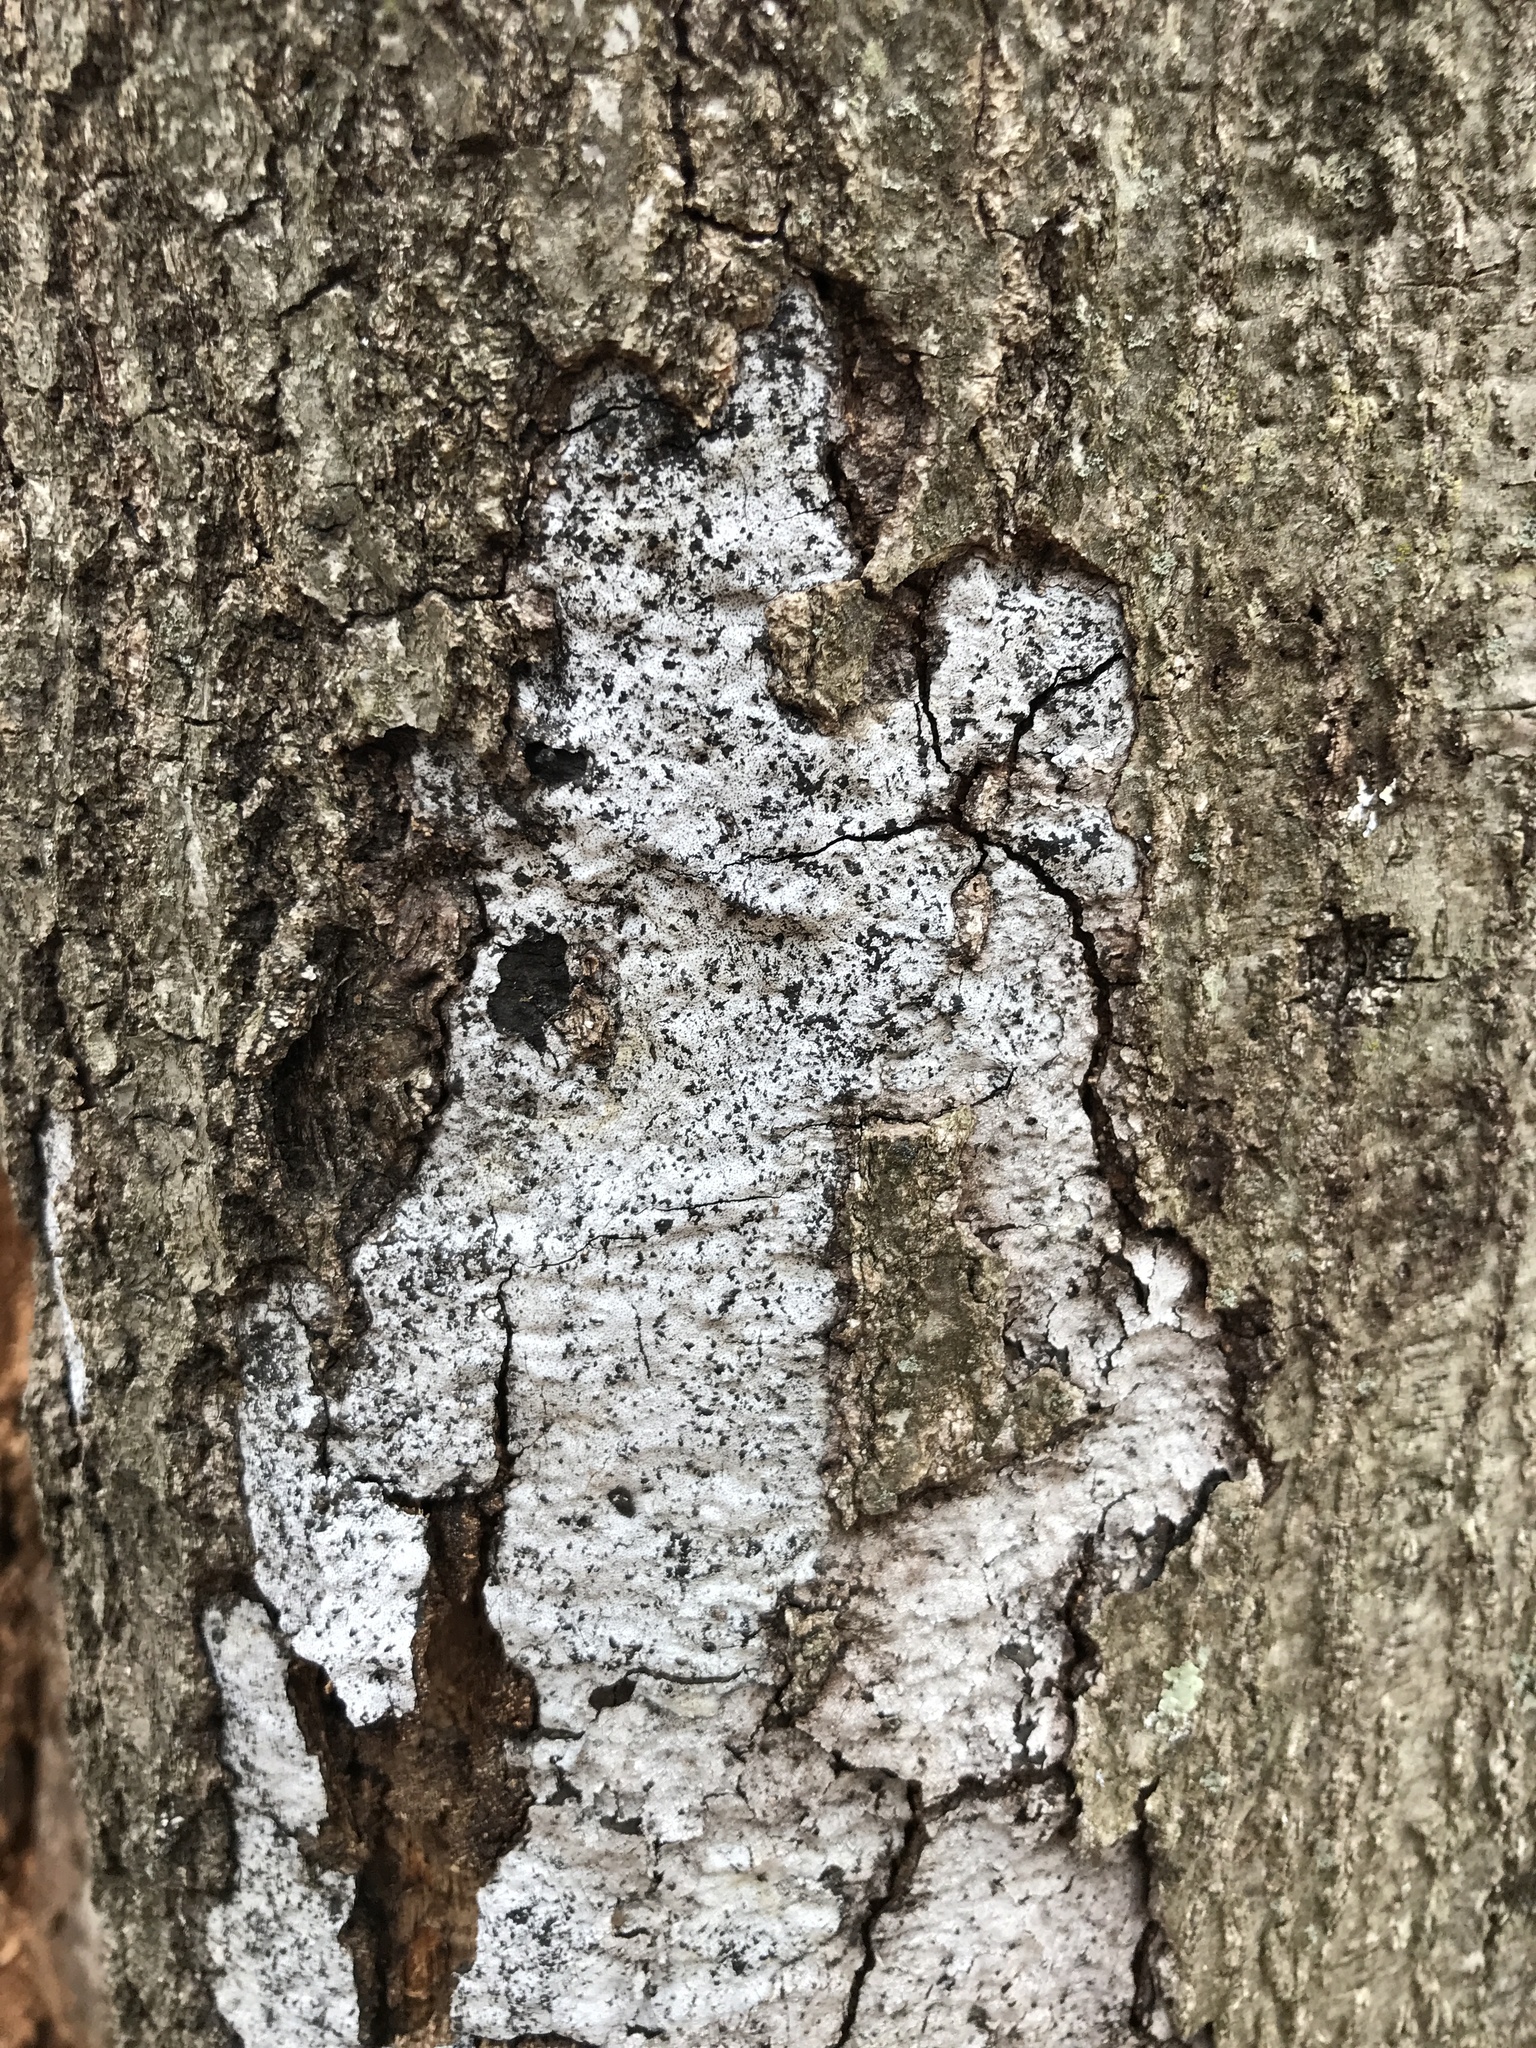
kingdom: Fungi
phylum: Ascomycota
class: Sordariomycetes
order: Xylariales
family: Graphostromataceae
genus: Biscogniauxia
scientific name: Biscogniauxia atropunctata
